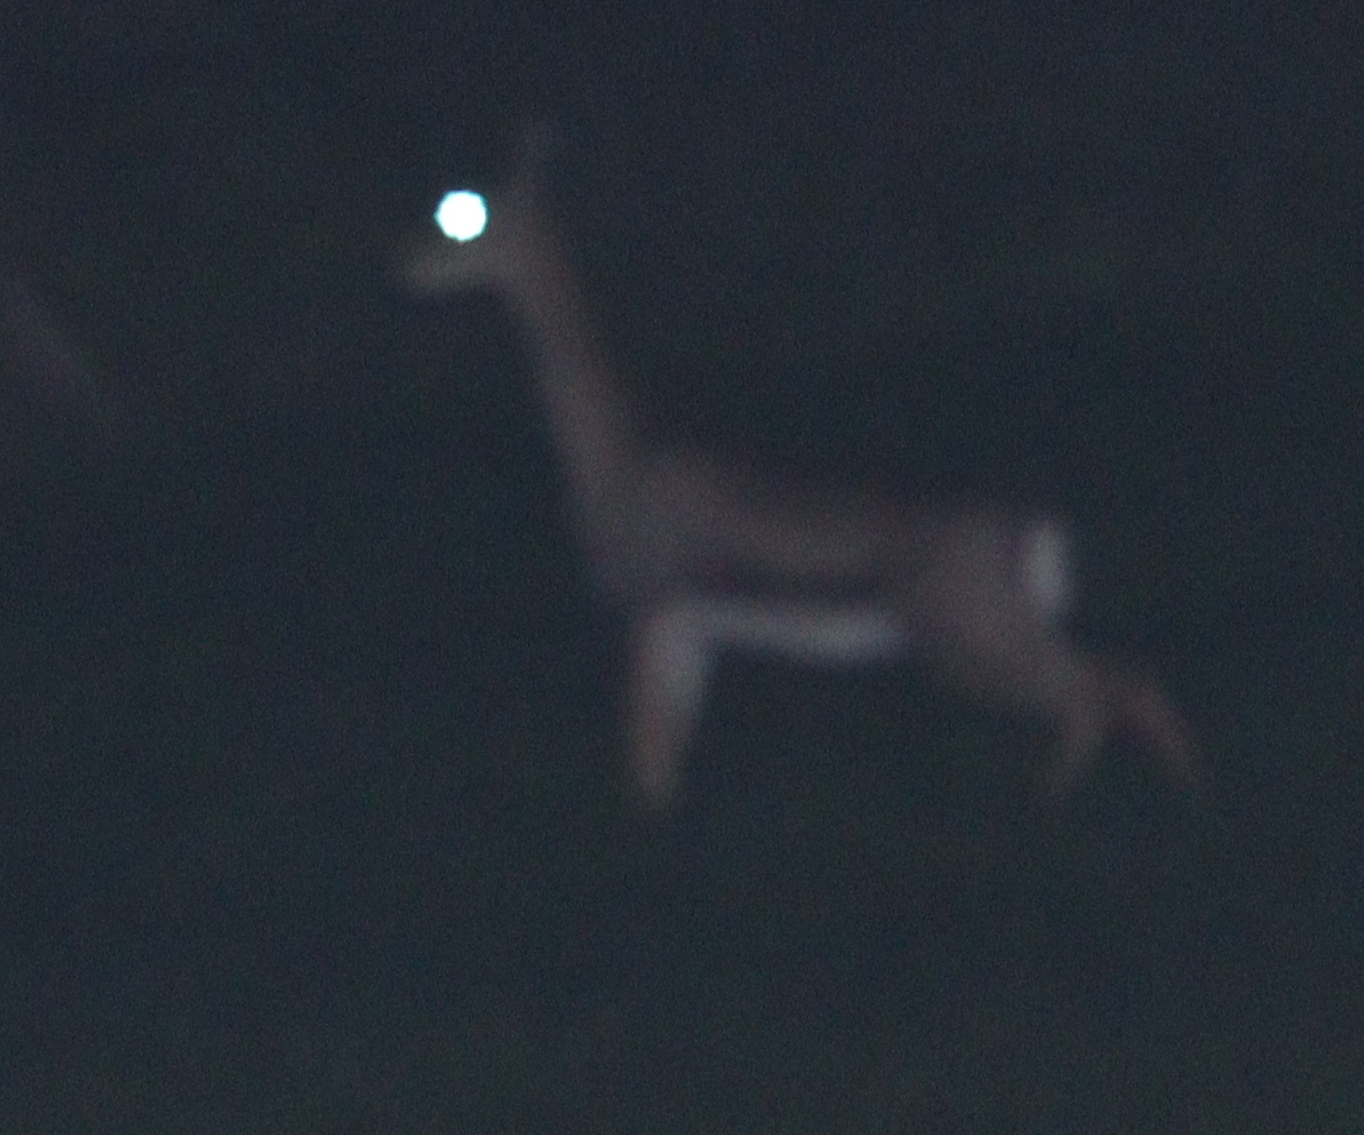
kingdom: Animalia
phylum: Chordata
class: Mammalia
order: Artiodactyla
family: Bovidae
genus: Gazella
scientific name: Gazella gazella
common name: Mountain gazelle
